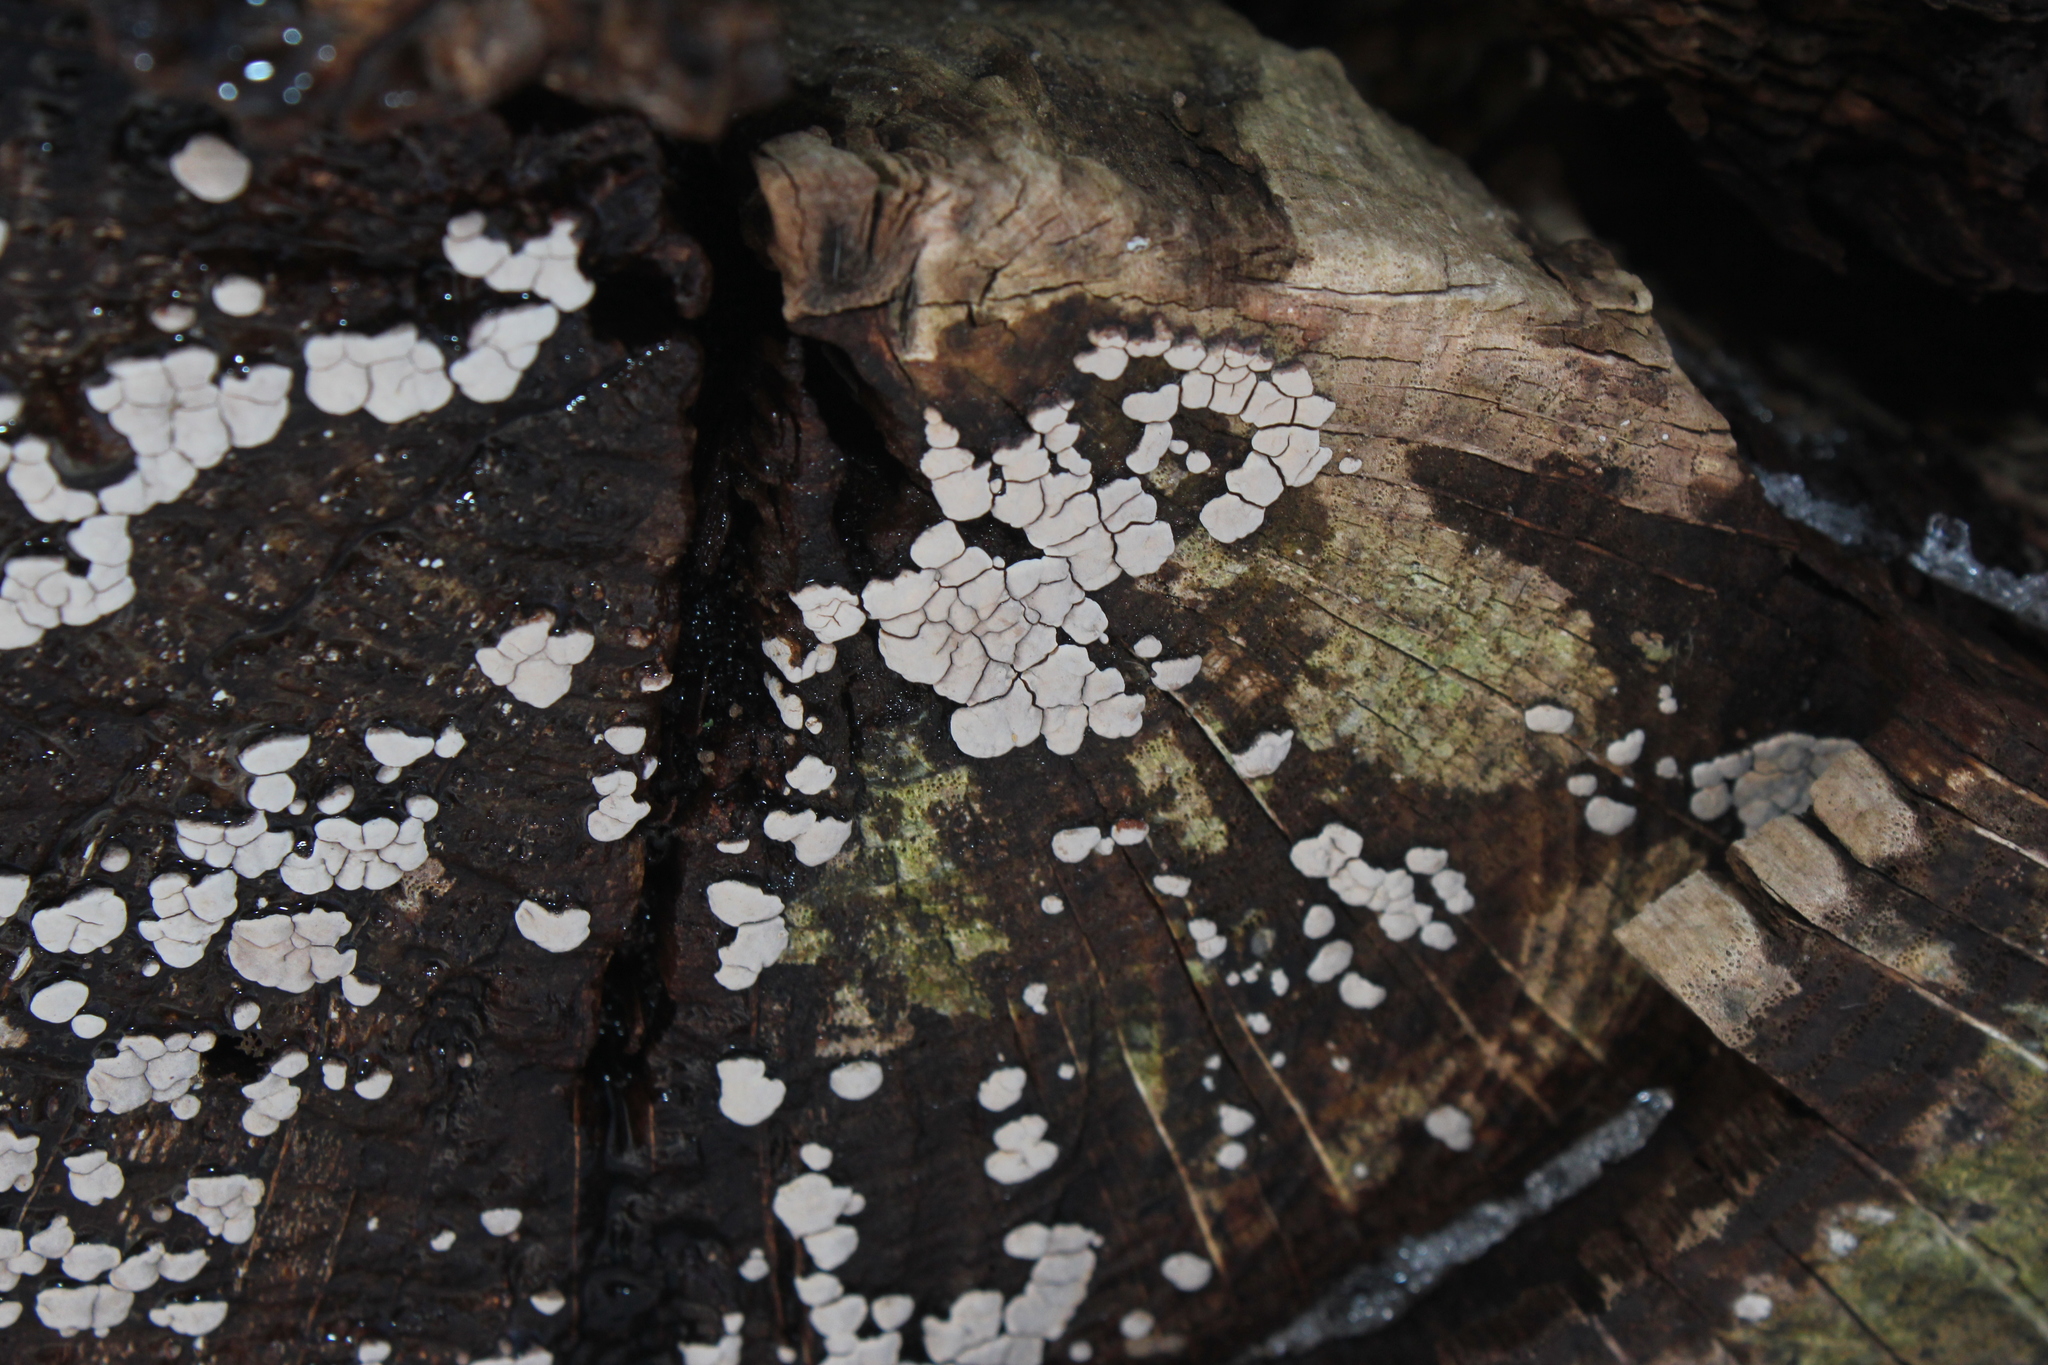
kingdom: Fungi
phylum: Basidiomycota
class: Agaricomycetes
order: Russulales
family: Stereaceae
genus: Xylobolus
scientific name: Xylobolus frustulatus
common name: Ceramic parchment
